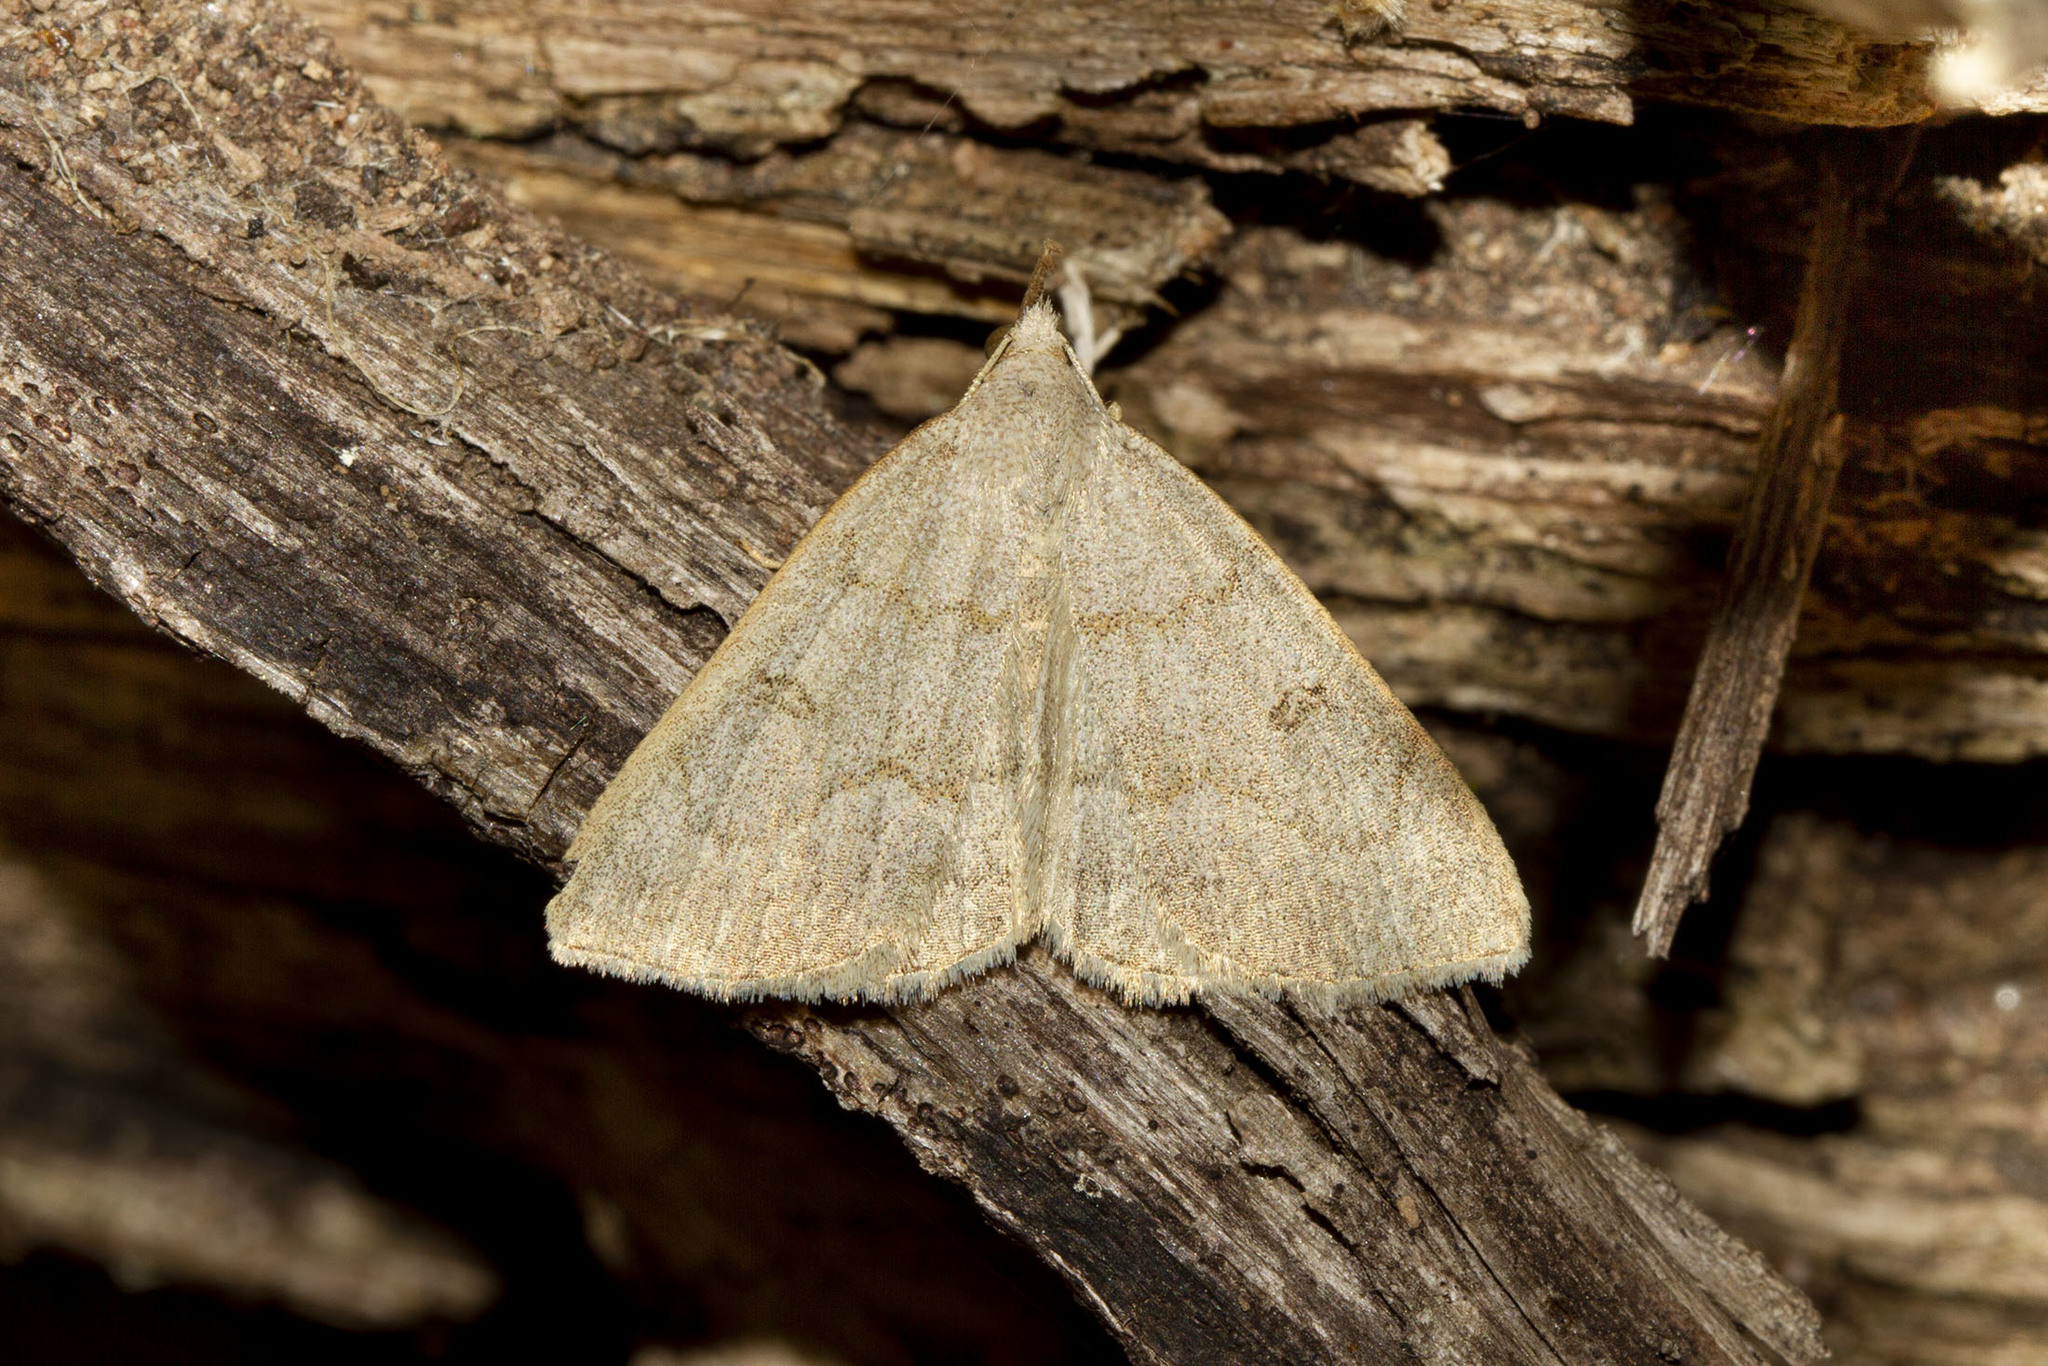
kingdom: Animalia
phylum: Arthropoda
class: Insecta
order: Lepidoptera
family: Erebidae
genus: Macrochilo
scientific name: Macrochilo morbidalis
